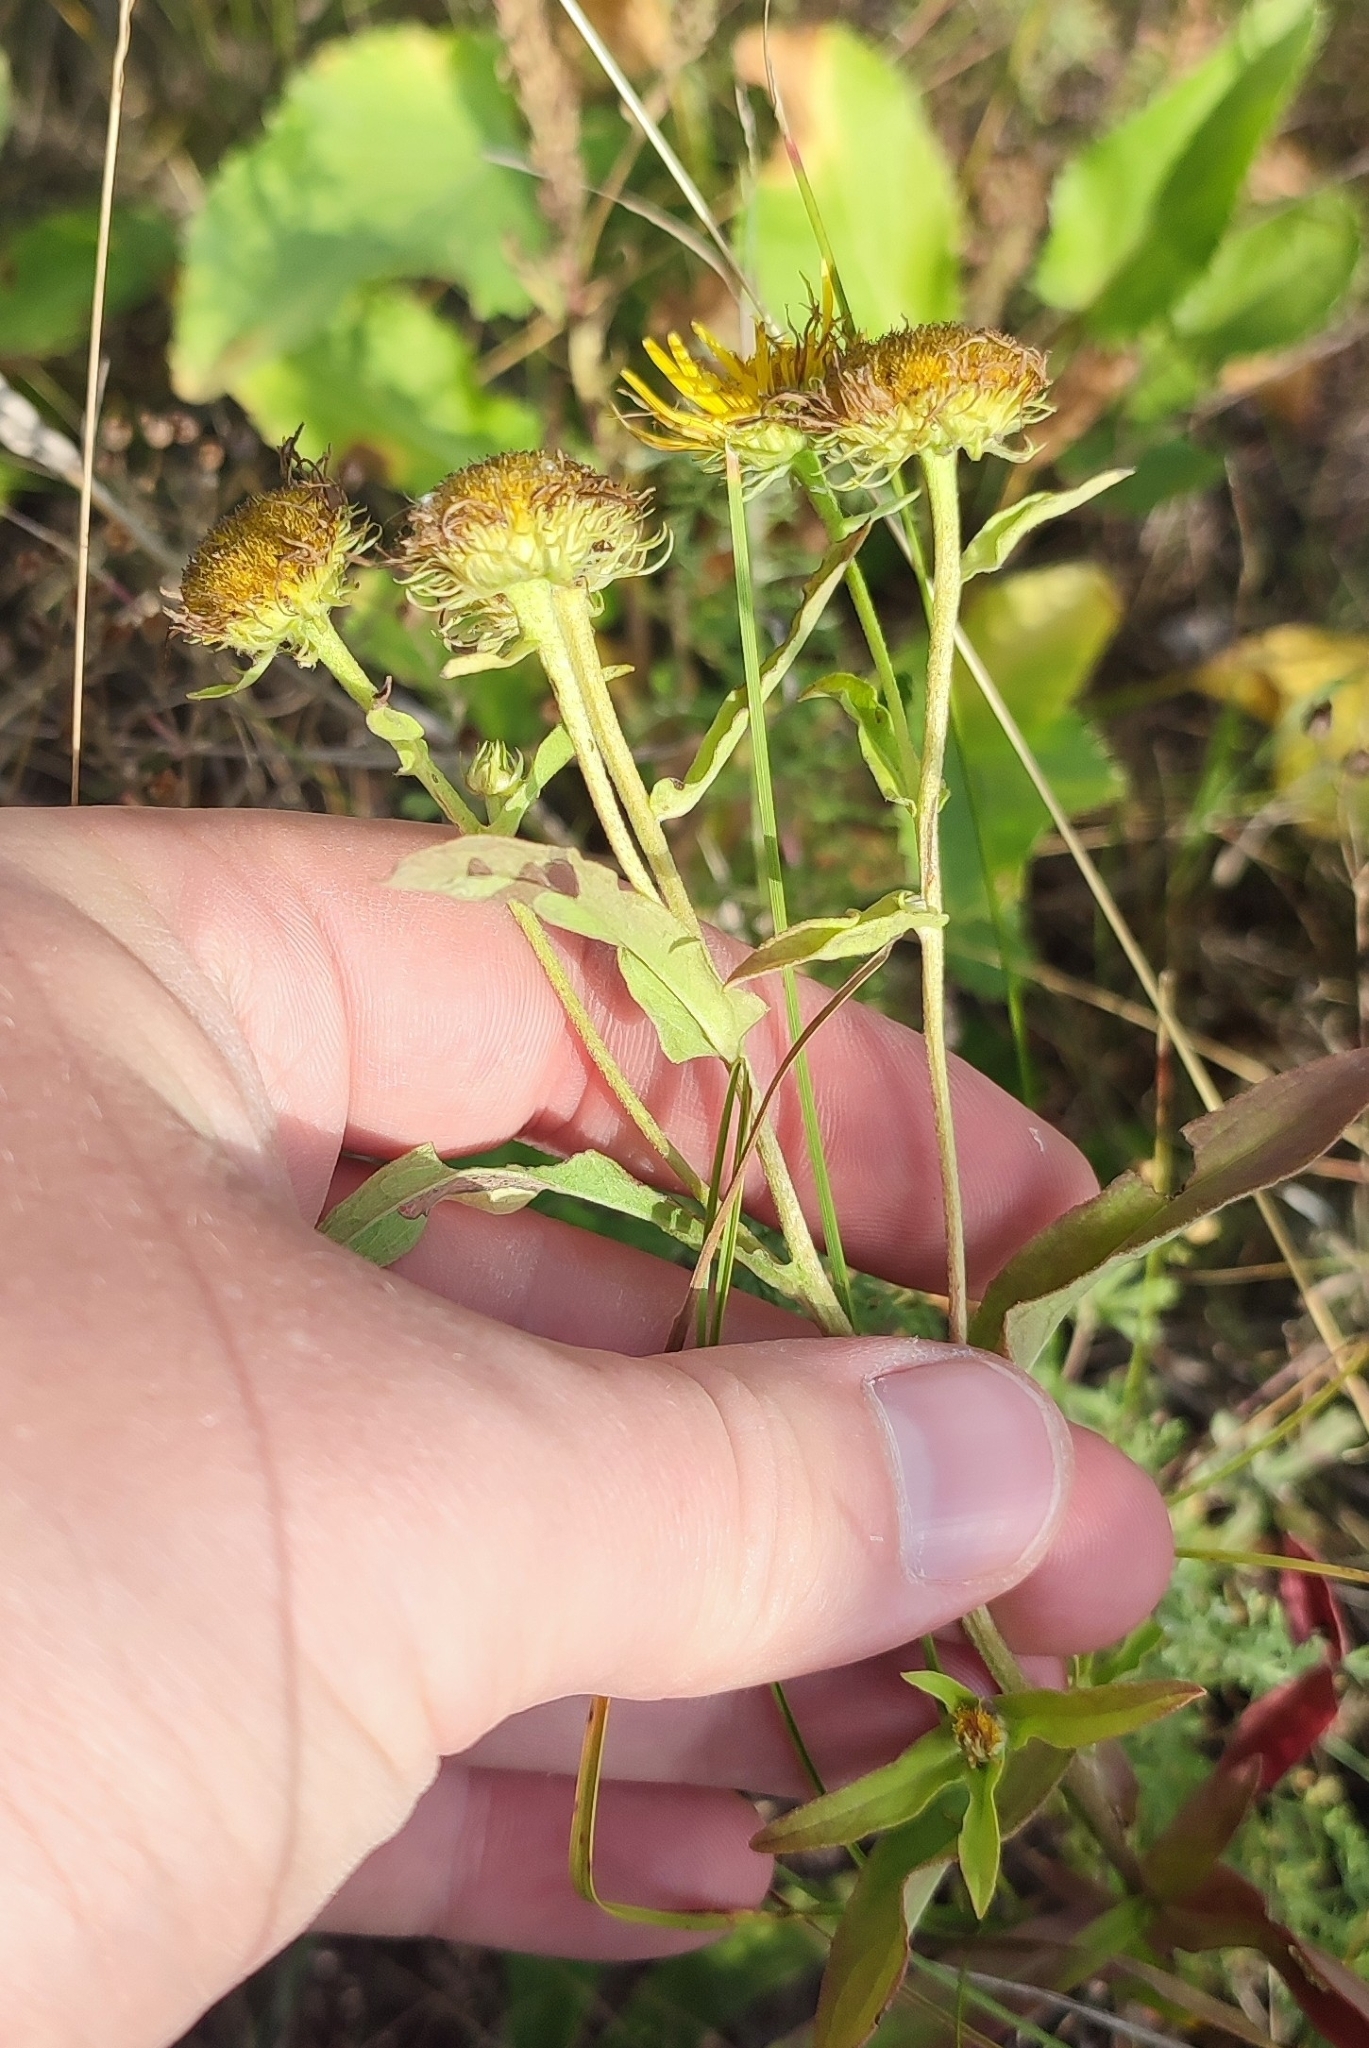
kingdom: Plantae
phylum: Tracheophyta
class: Magnoliopsida
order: Asterales
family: Asteraceae
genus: Pentanema
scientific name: Pentanema britannicum
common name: British elecampane
